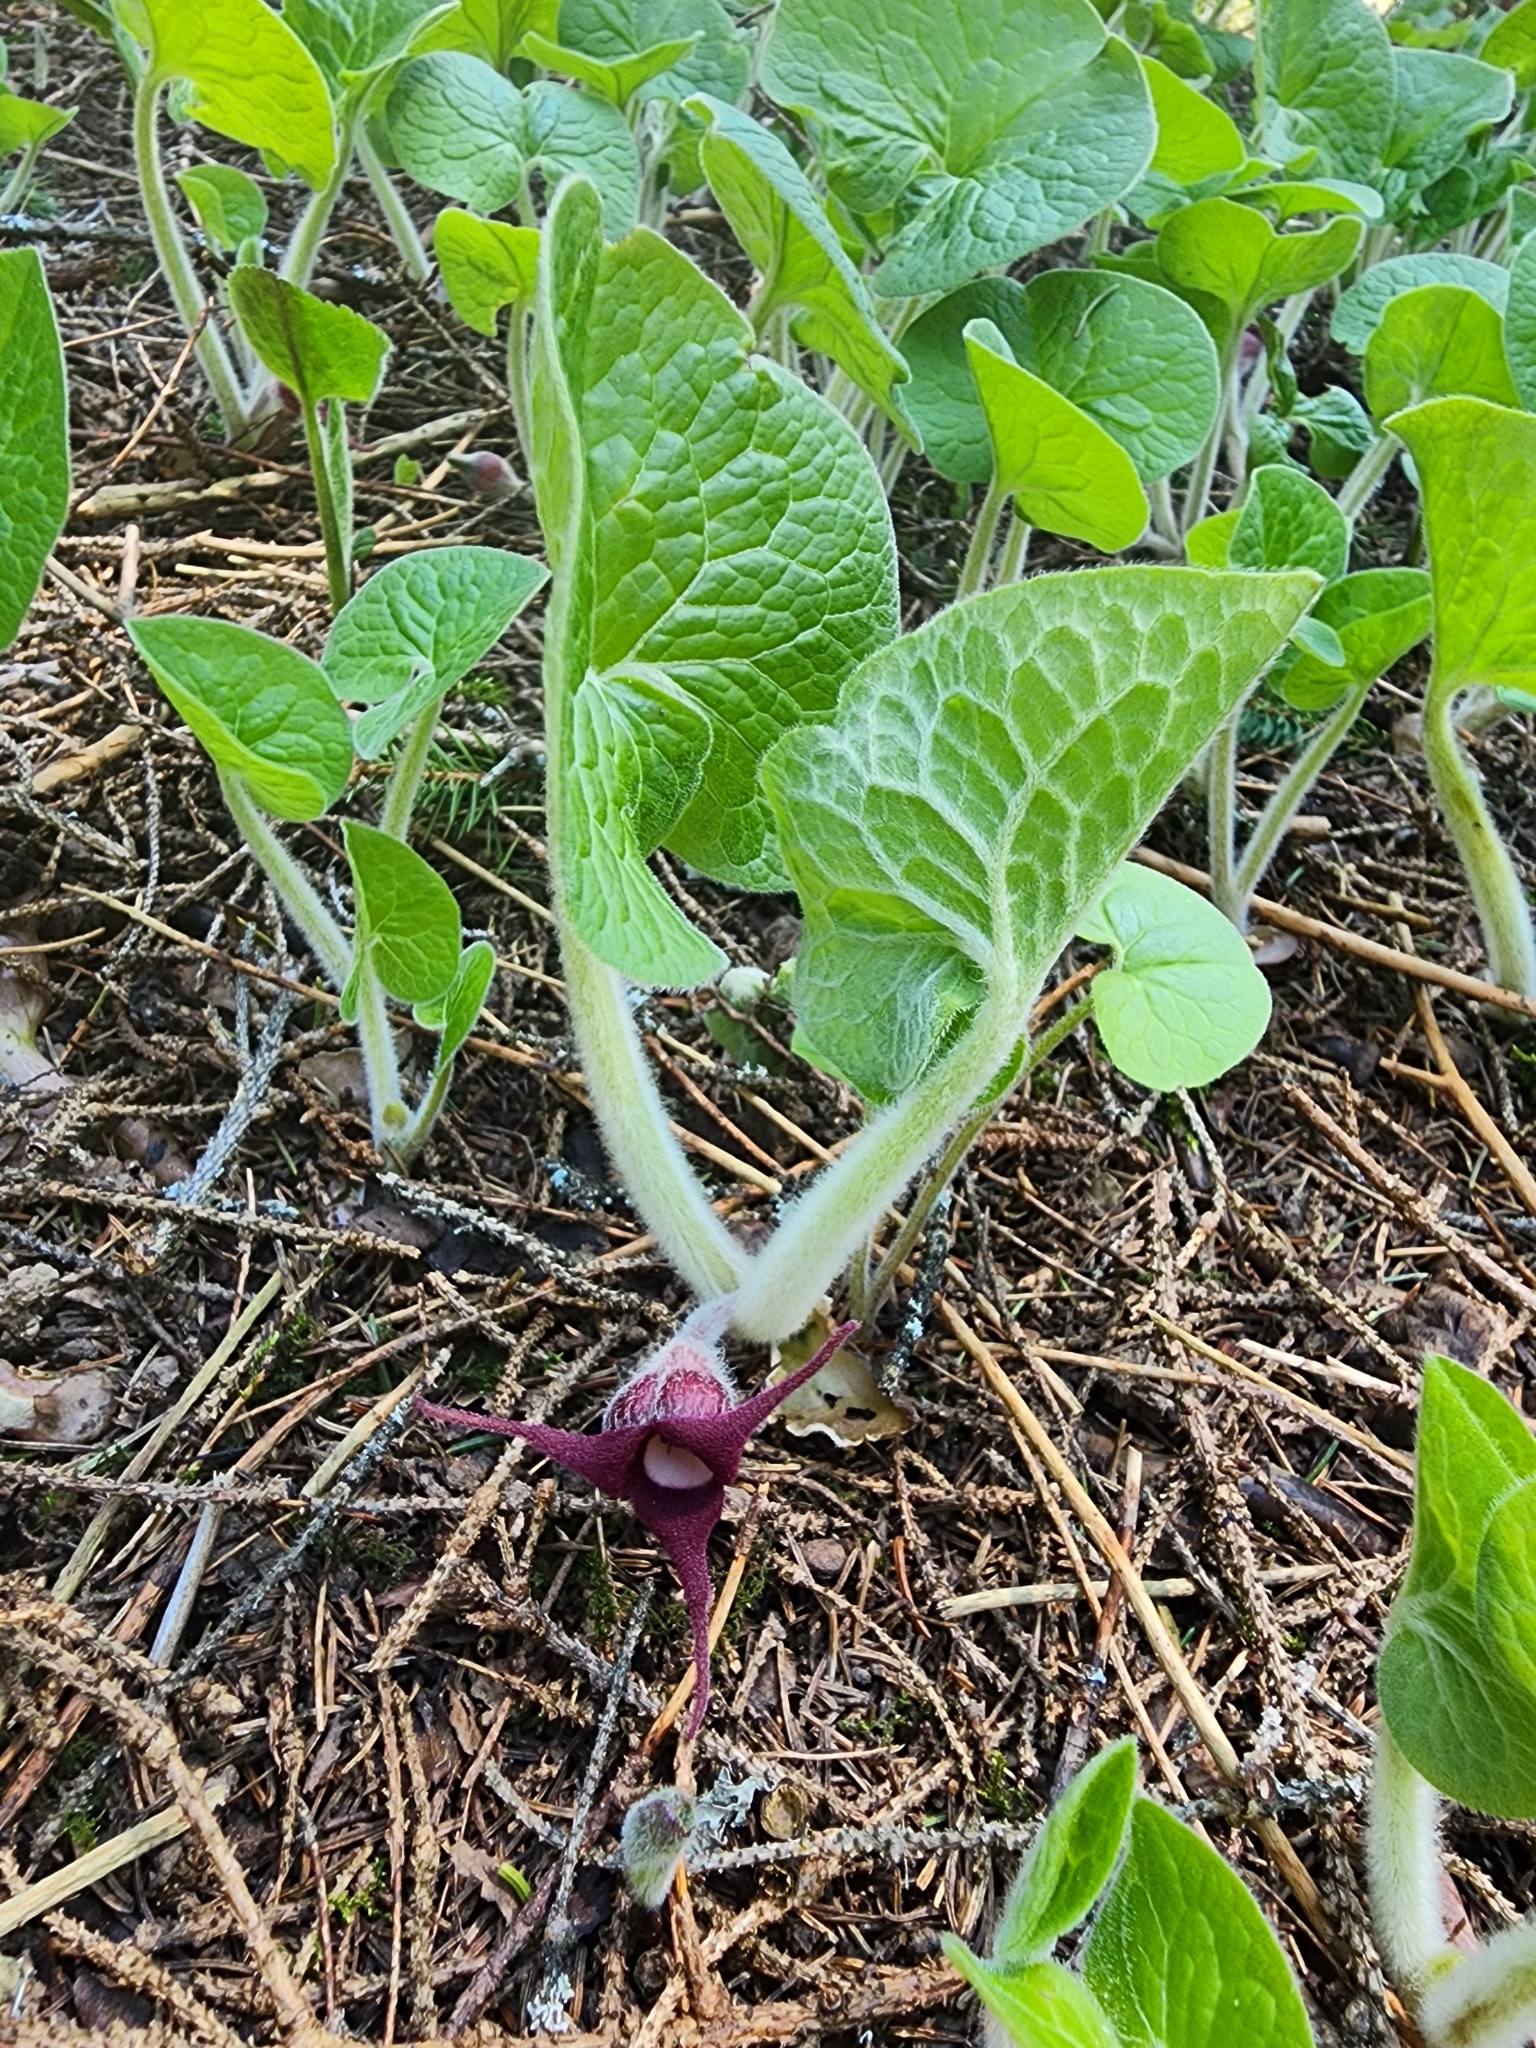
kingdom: Plantae
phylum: Tracheophyta
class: Magnoliopsida
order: Piperales
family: Aristolochiaceae
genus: Asarum
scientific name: Asarum canadense
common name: Wild ginger
